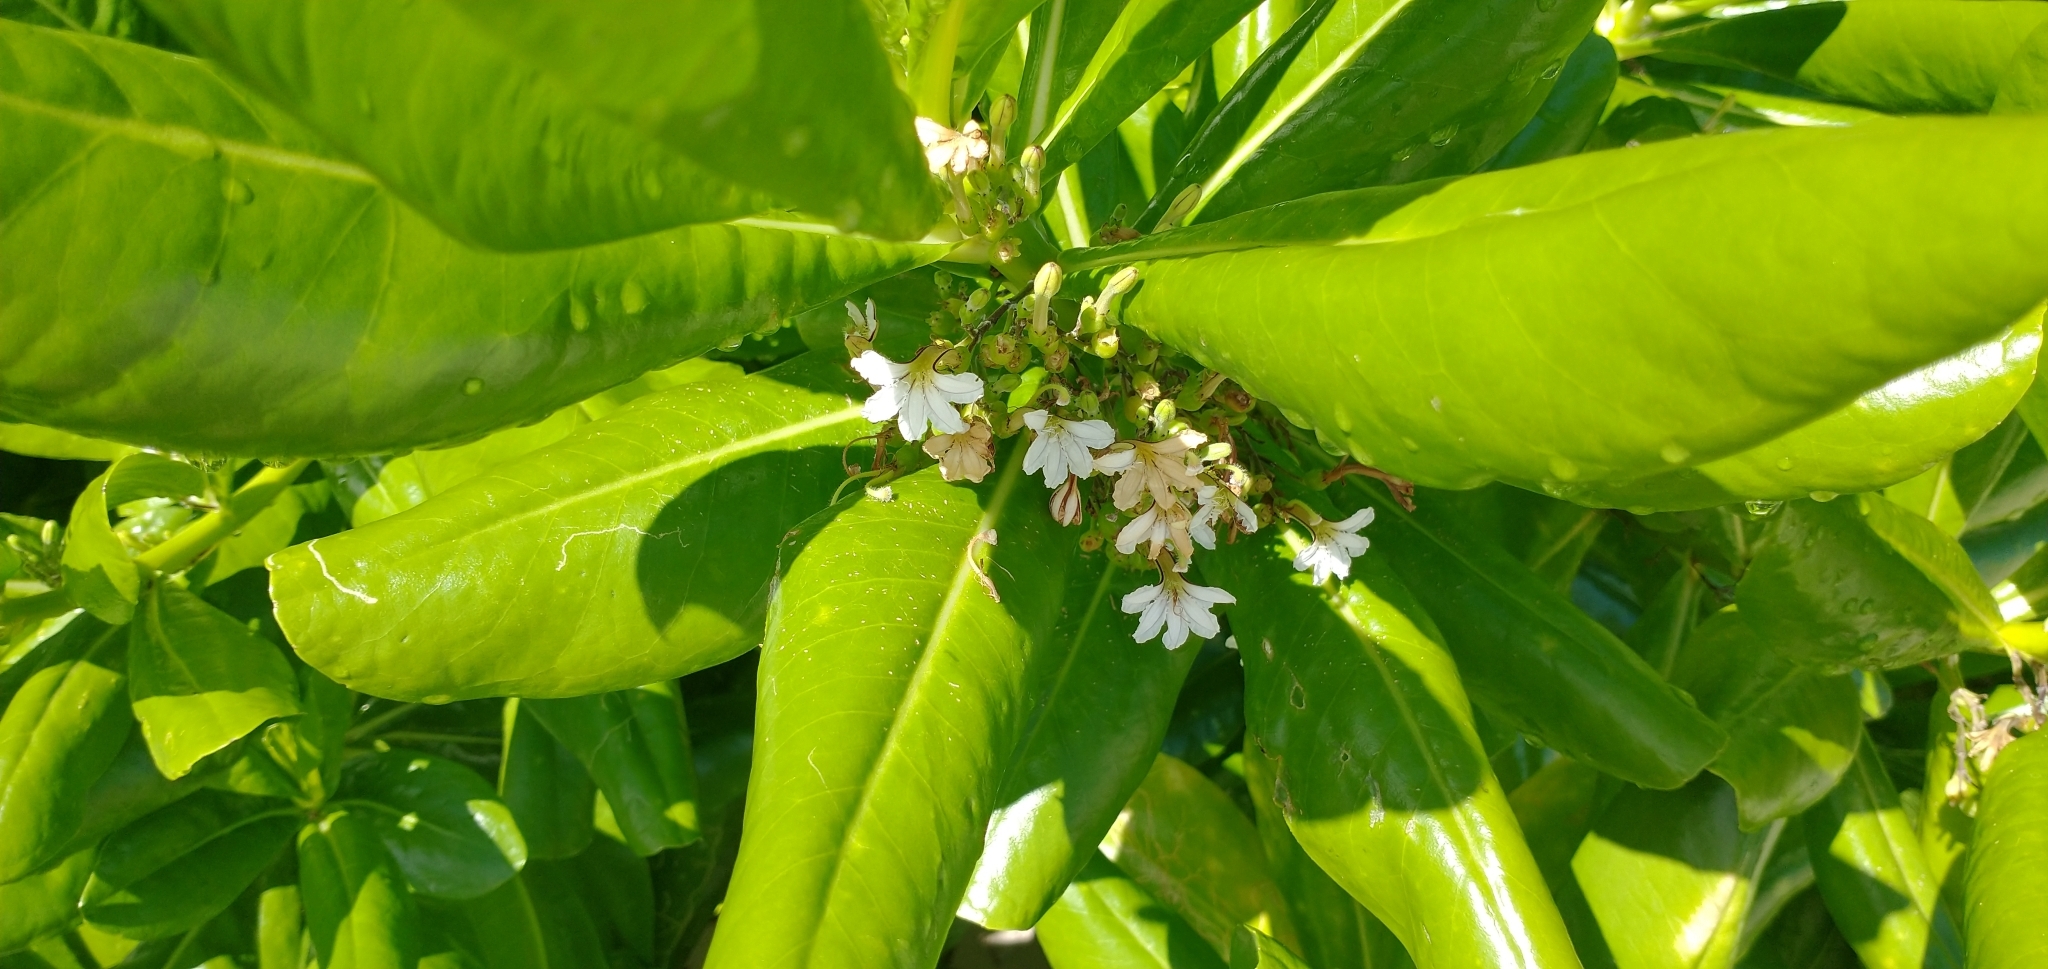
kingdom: Plantae
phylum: Tracheophyta
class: Magnoliopsida
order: Asterales
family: Goodeniaceae
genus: Scaevola
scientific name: Scaevola taccada
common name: Sea lettucetree
